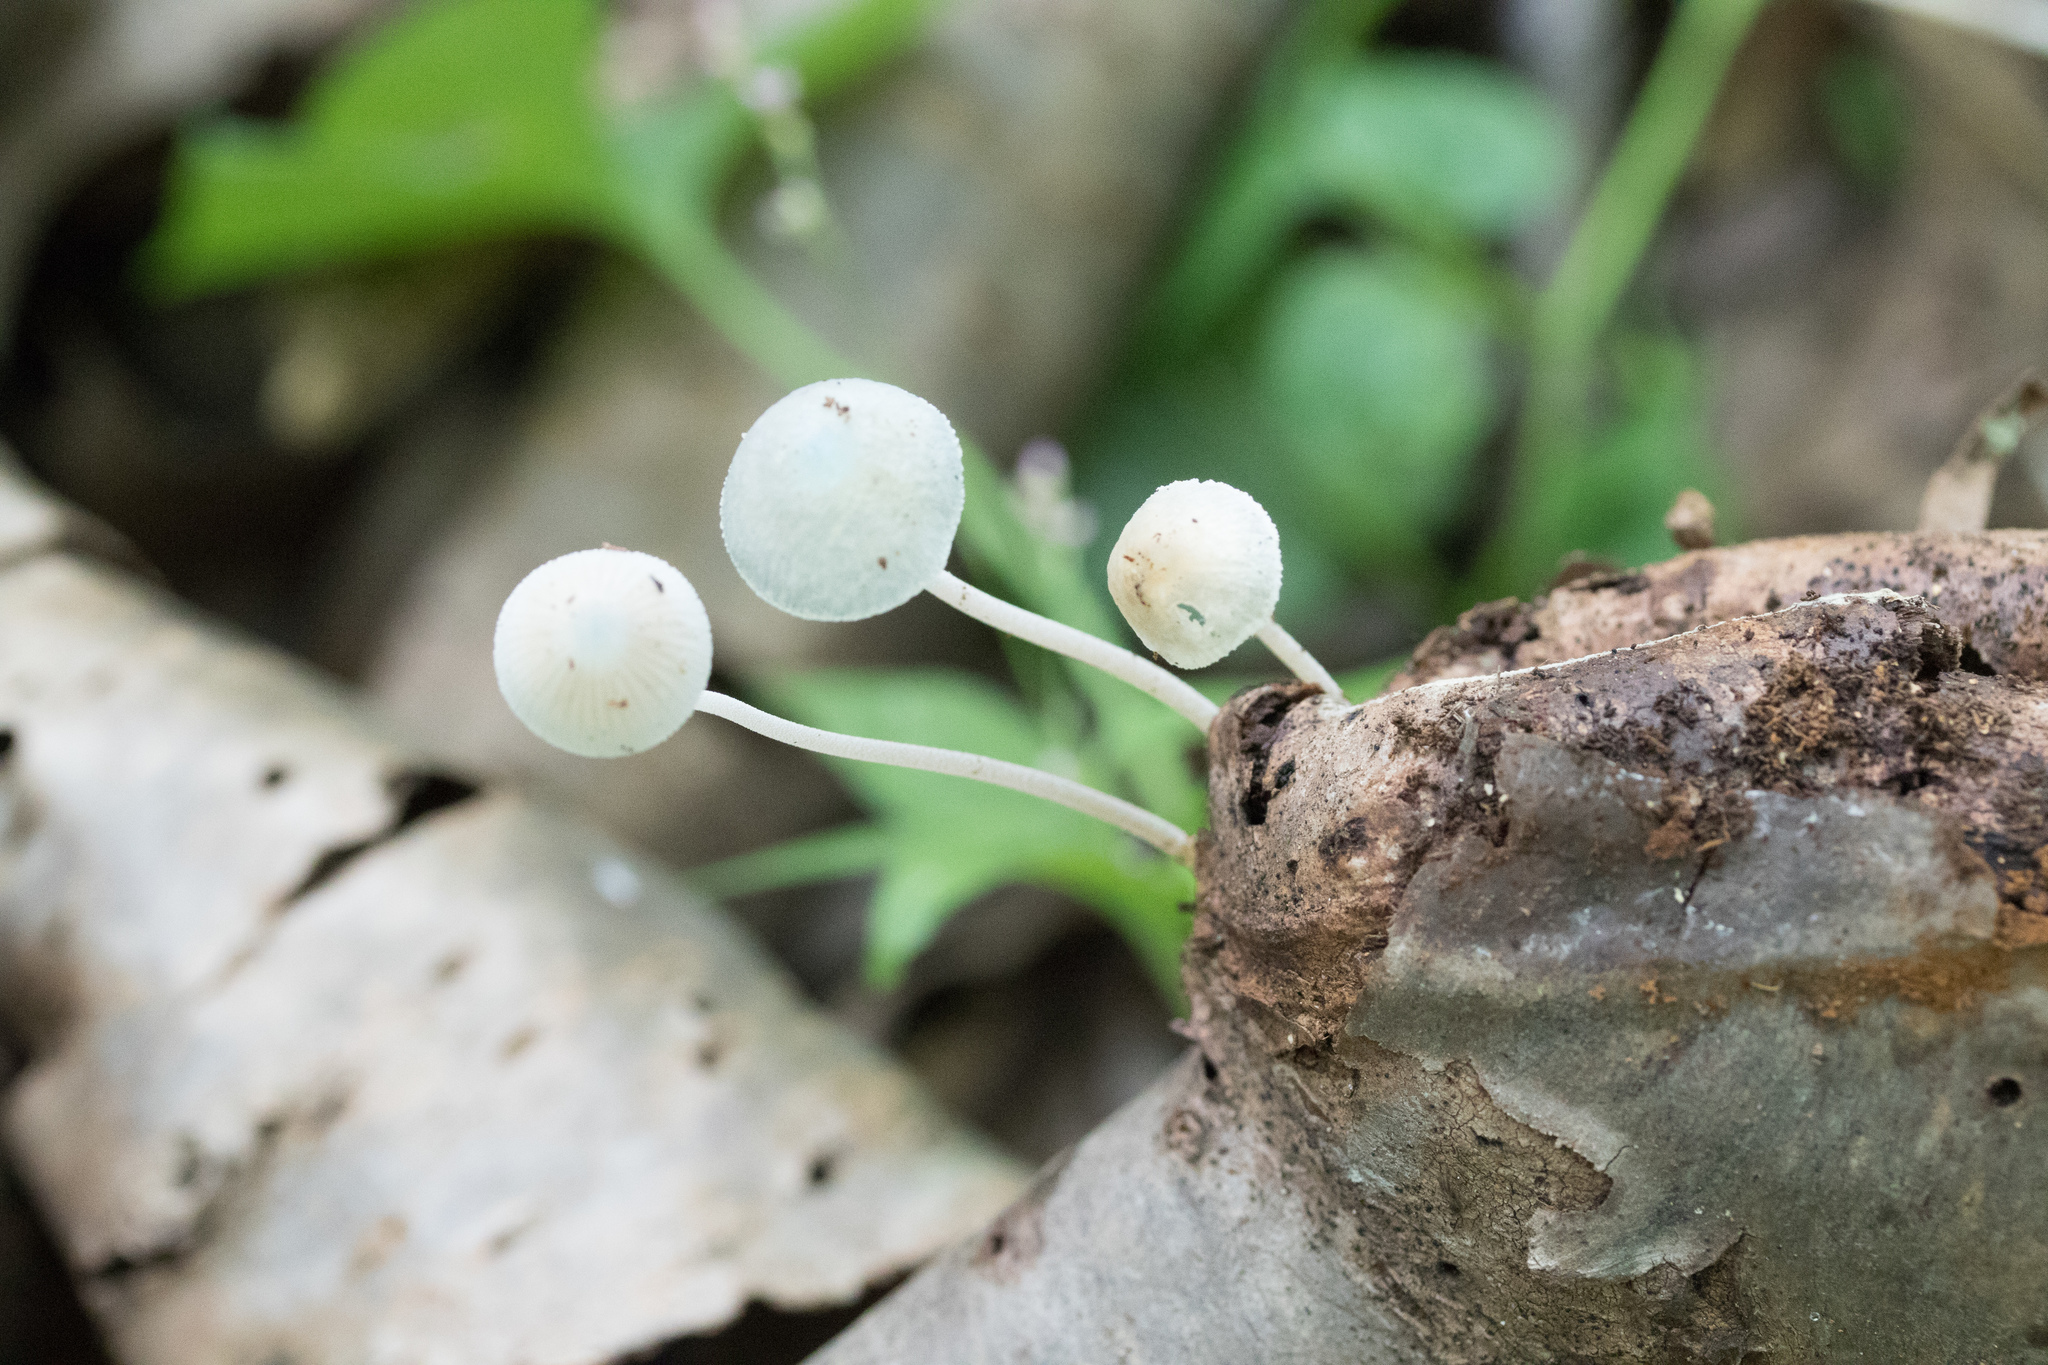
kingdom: Fungi
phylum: Basidiomycota
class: Agaricomycetes
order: Agaricales
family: Mycenaceae
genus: Mycena
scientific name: Mycena subcaerulea
